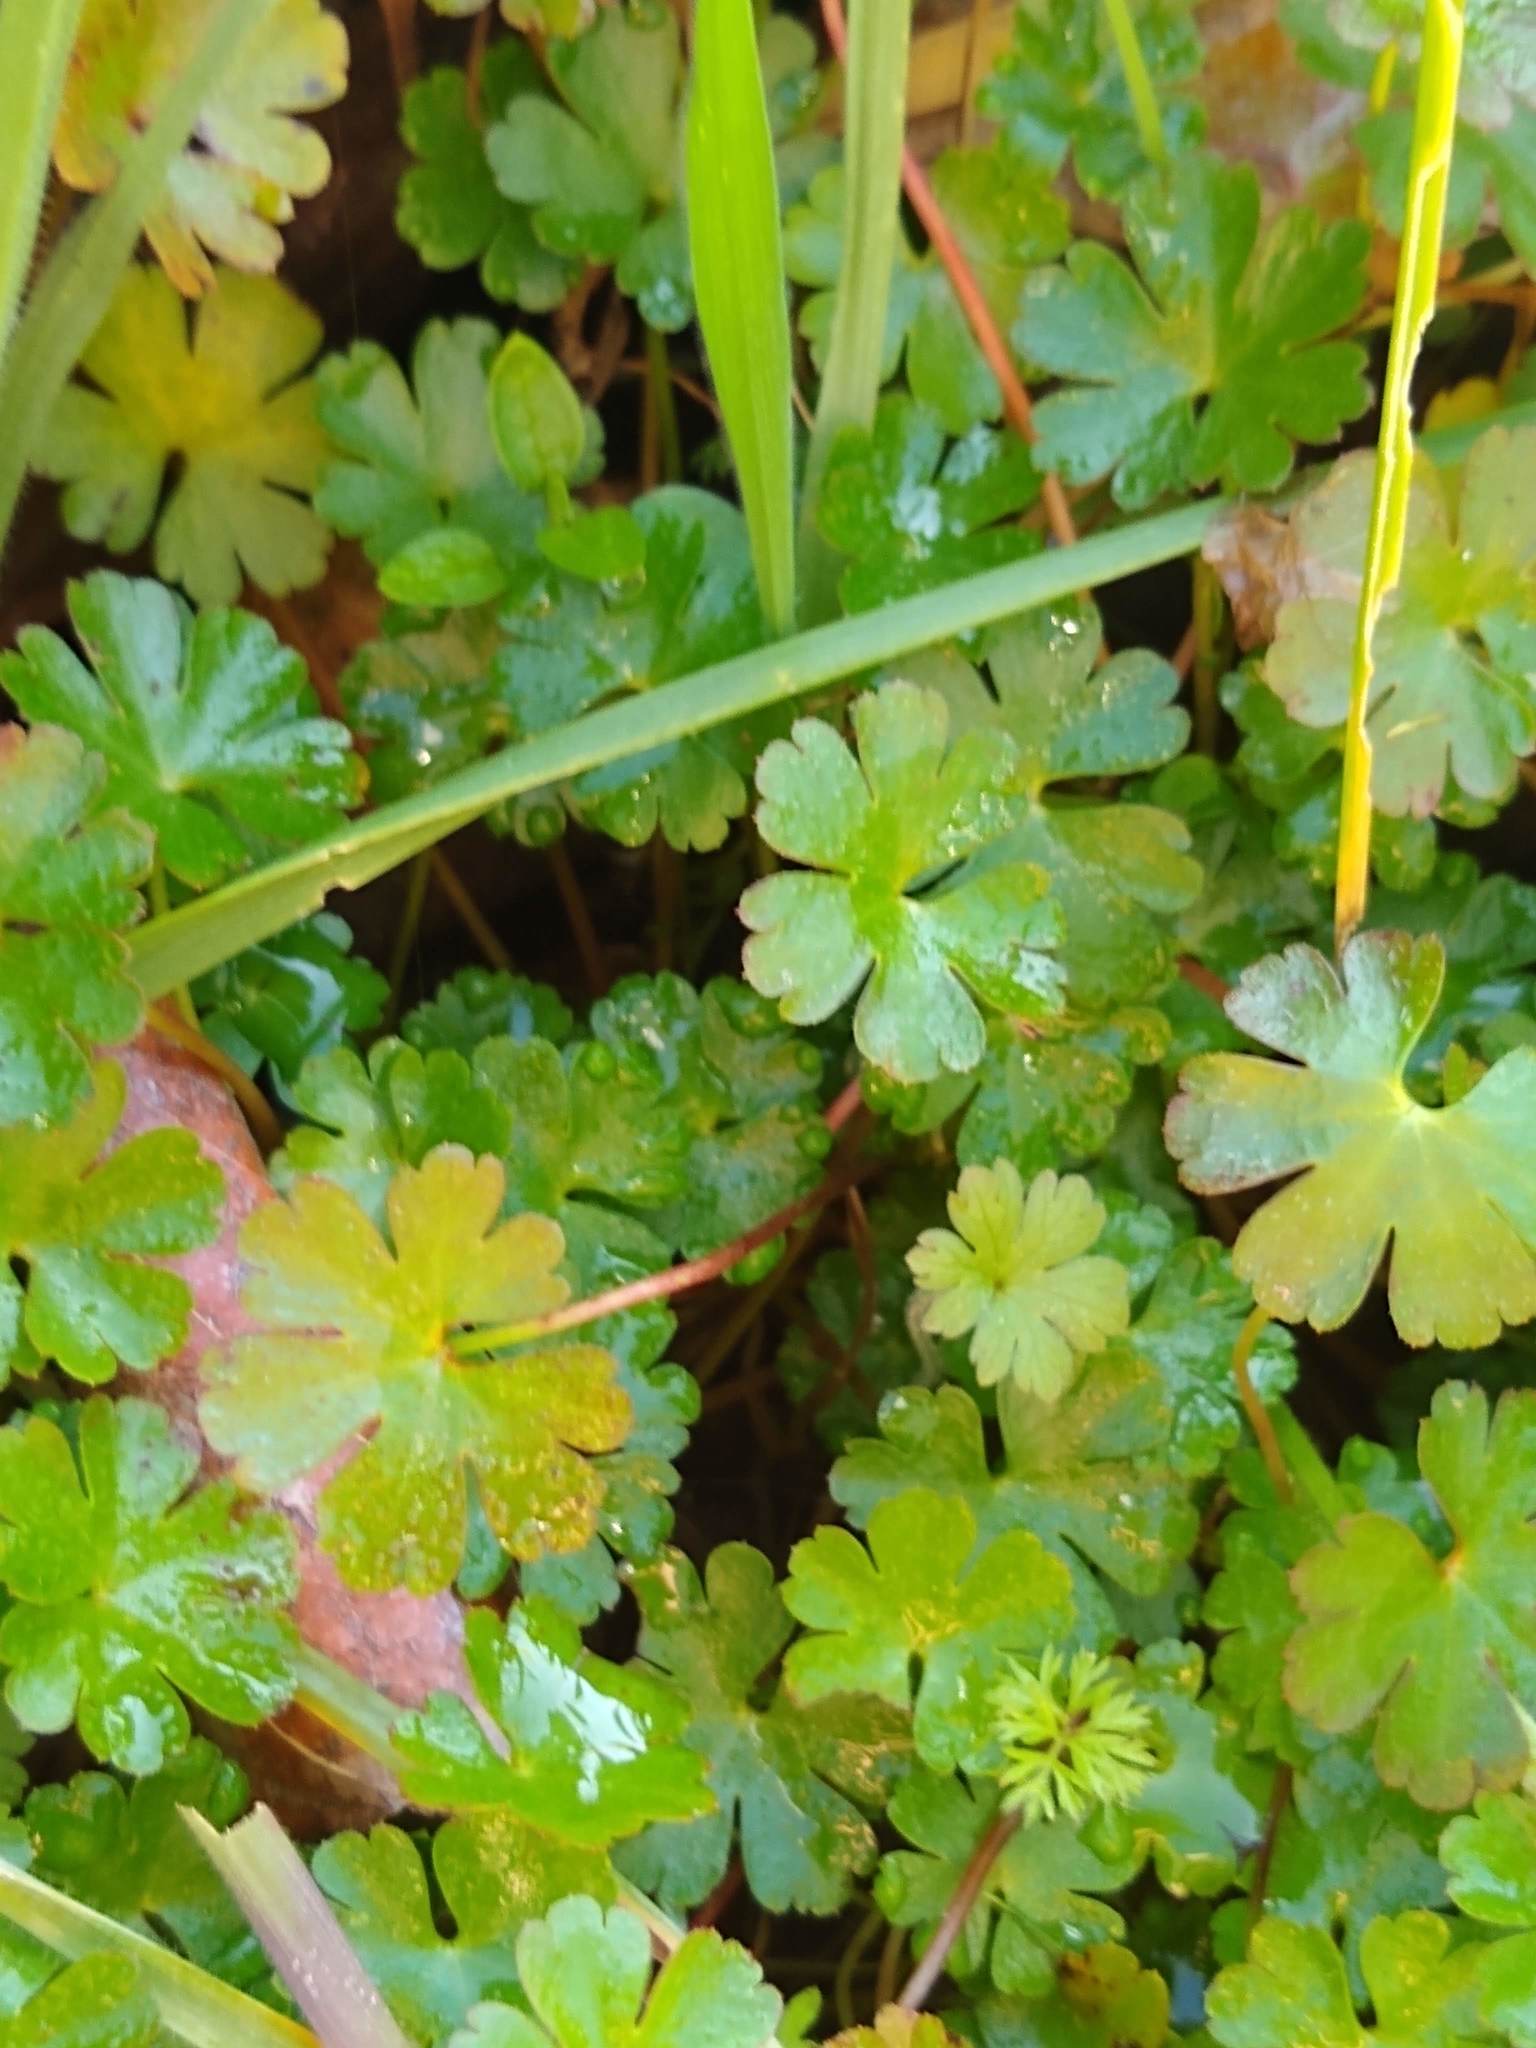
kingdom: Plantae
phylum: Tracheophyta
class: Magnoliopsida
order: Geraniales
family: Geraniaceae
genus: Geranium
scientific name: Geranium lucidum
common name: Shining crane's-bill
